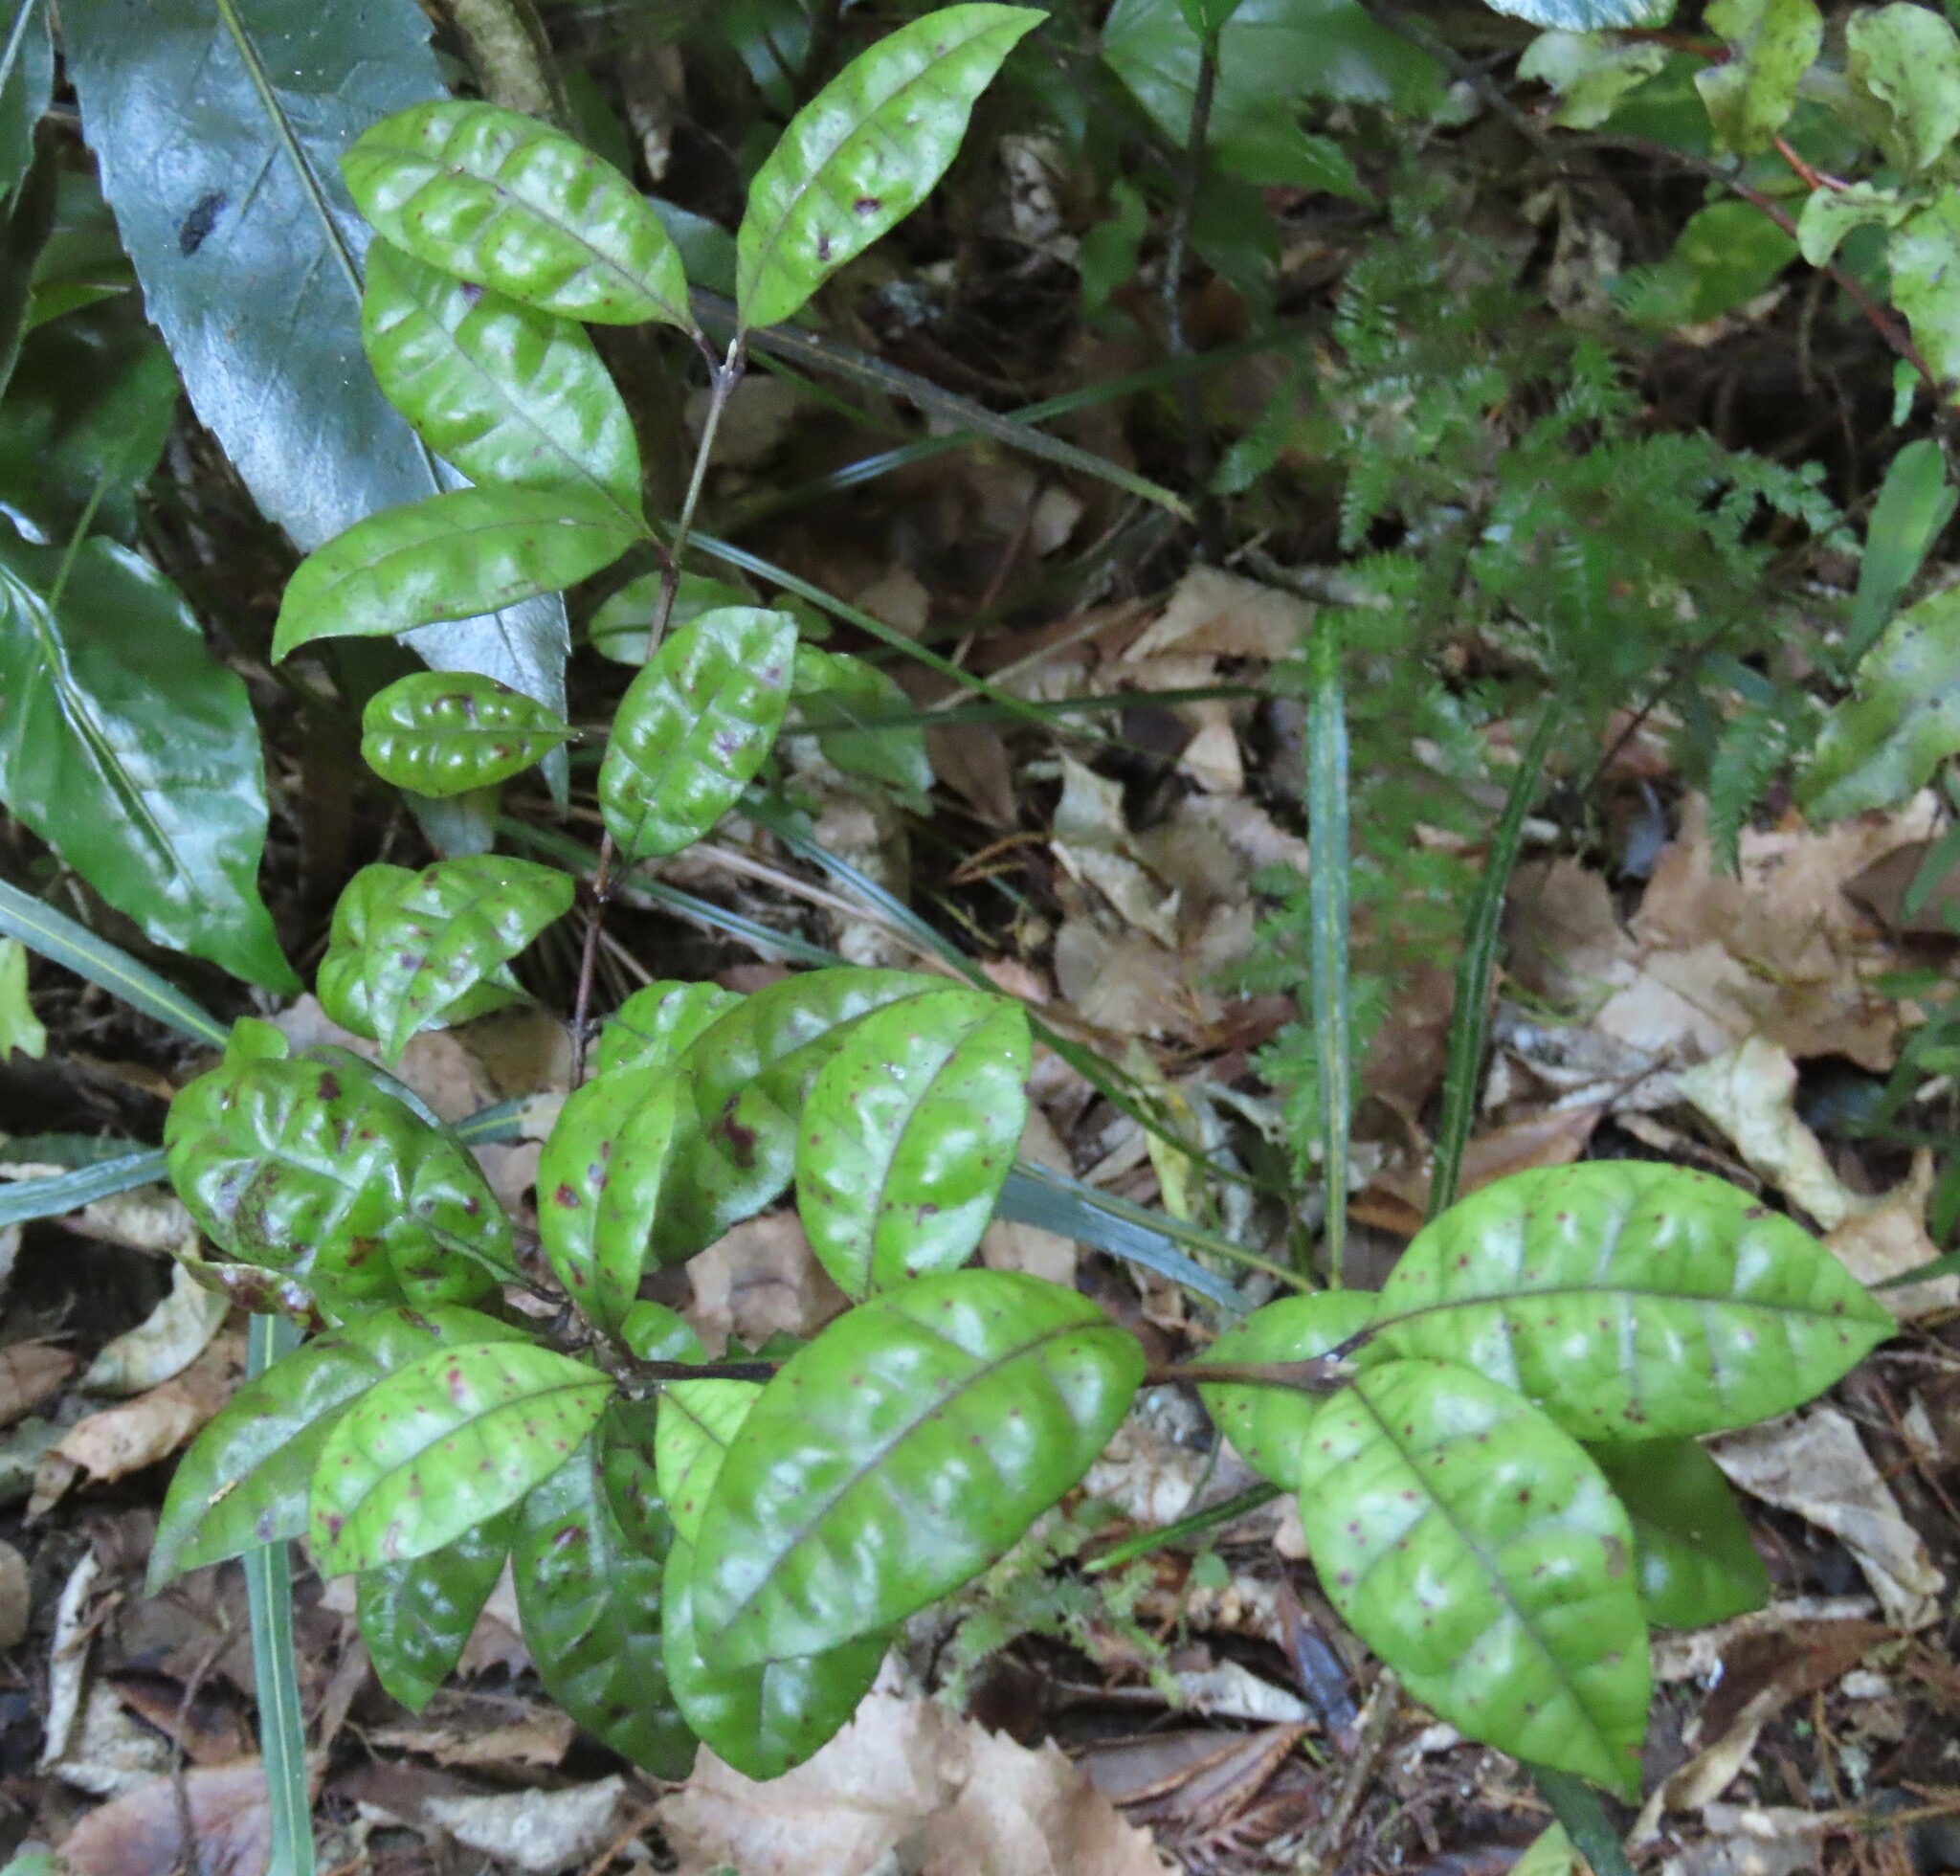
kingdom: Plantae
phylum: Tracheophyta
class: Magnoliopsida
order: Myrtales
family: Myrtaceae
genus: Lophomyrtus
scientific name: Lophomyrtus bullata
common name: Rama rama
